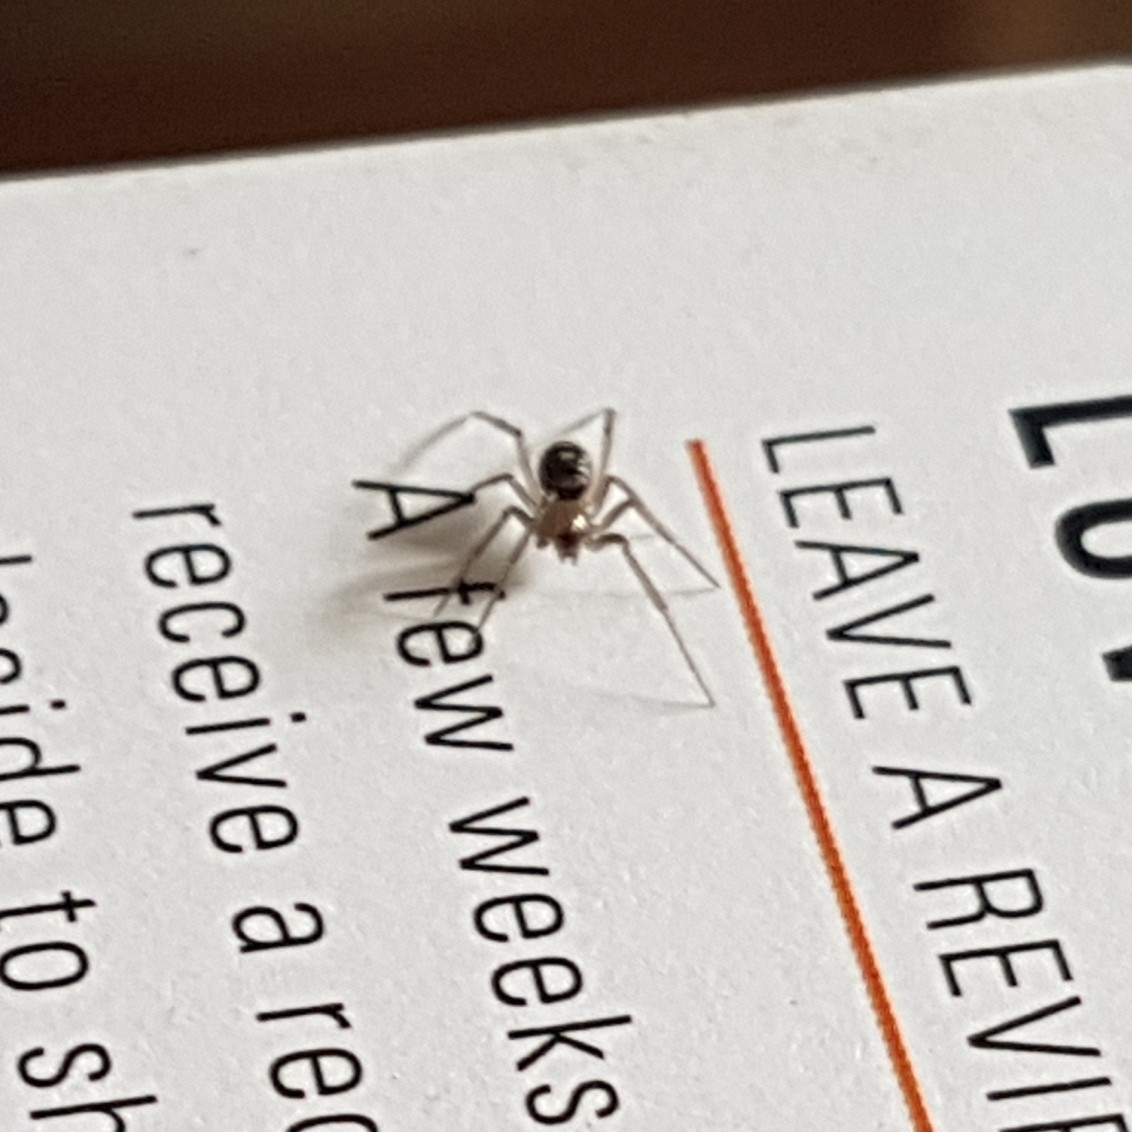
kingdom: Animalia
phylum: Arthropoda
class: Arachnida
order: Araneae
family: Theridiidae
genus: Steatoda
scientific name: Steatoda grossa
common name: False black widow
